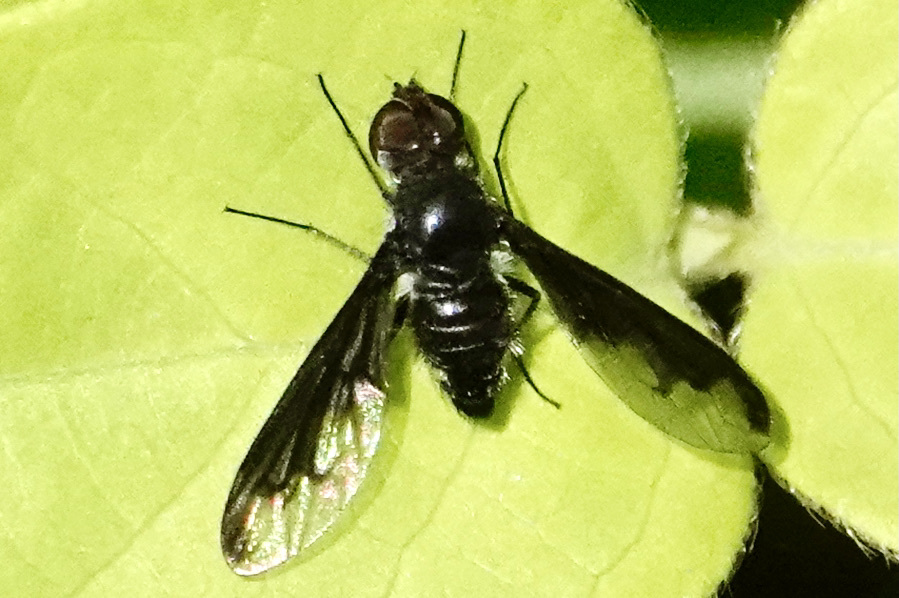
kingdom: Animalia
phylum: Arthropoda
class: Insecta
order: Diptera
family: Bombyliidae
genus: Anthrax
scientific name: Anthrax argyropygus
